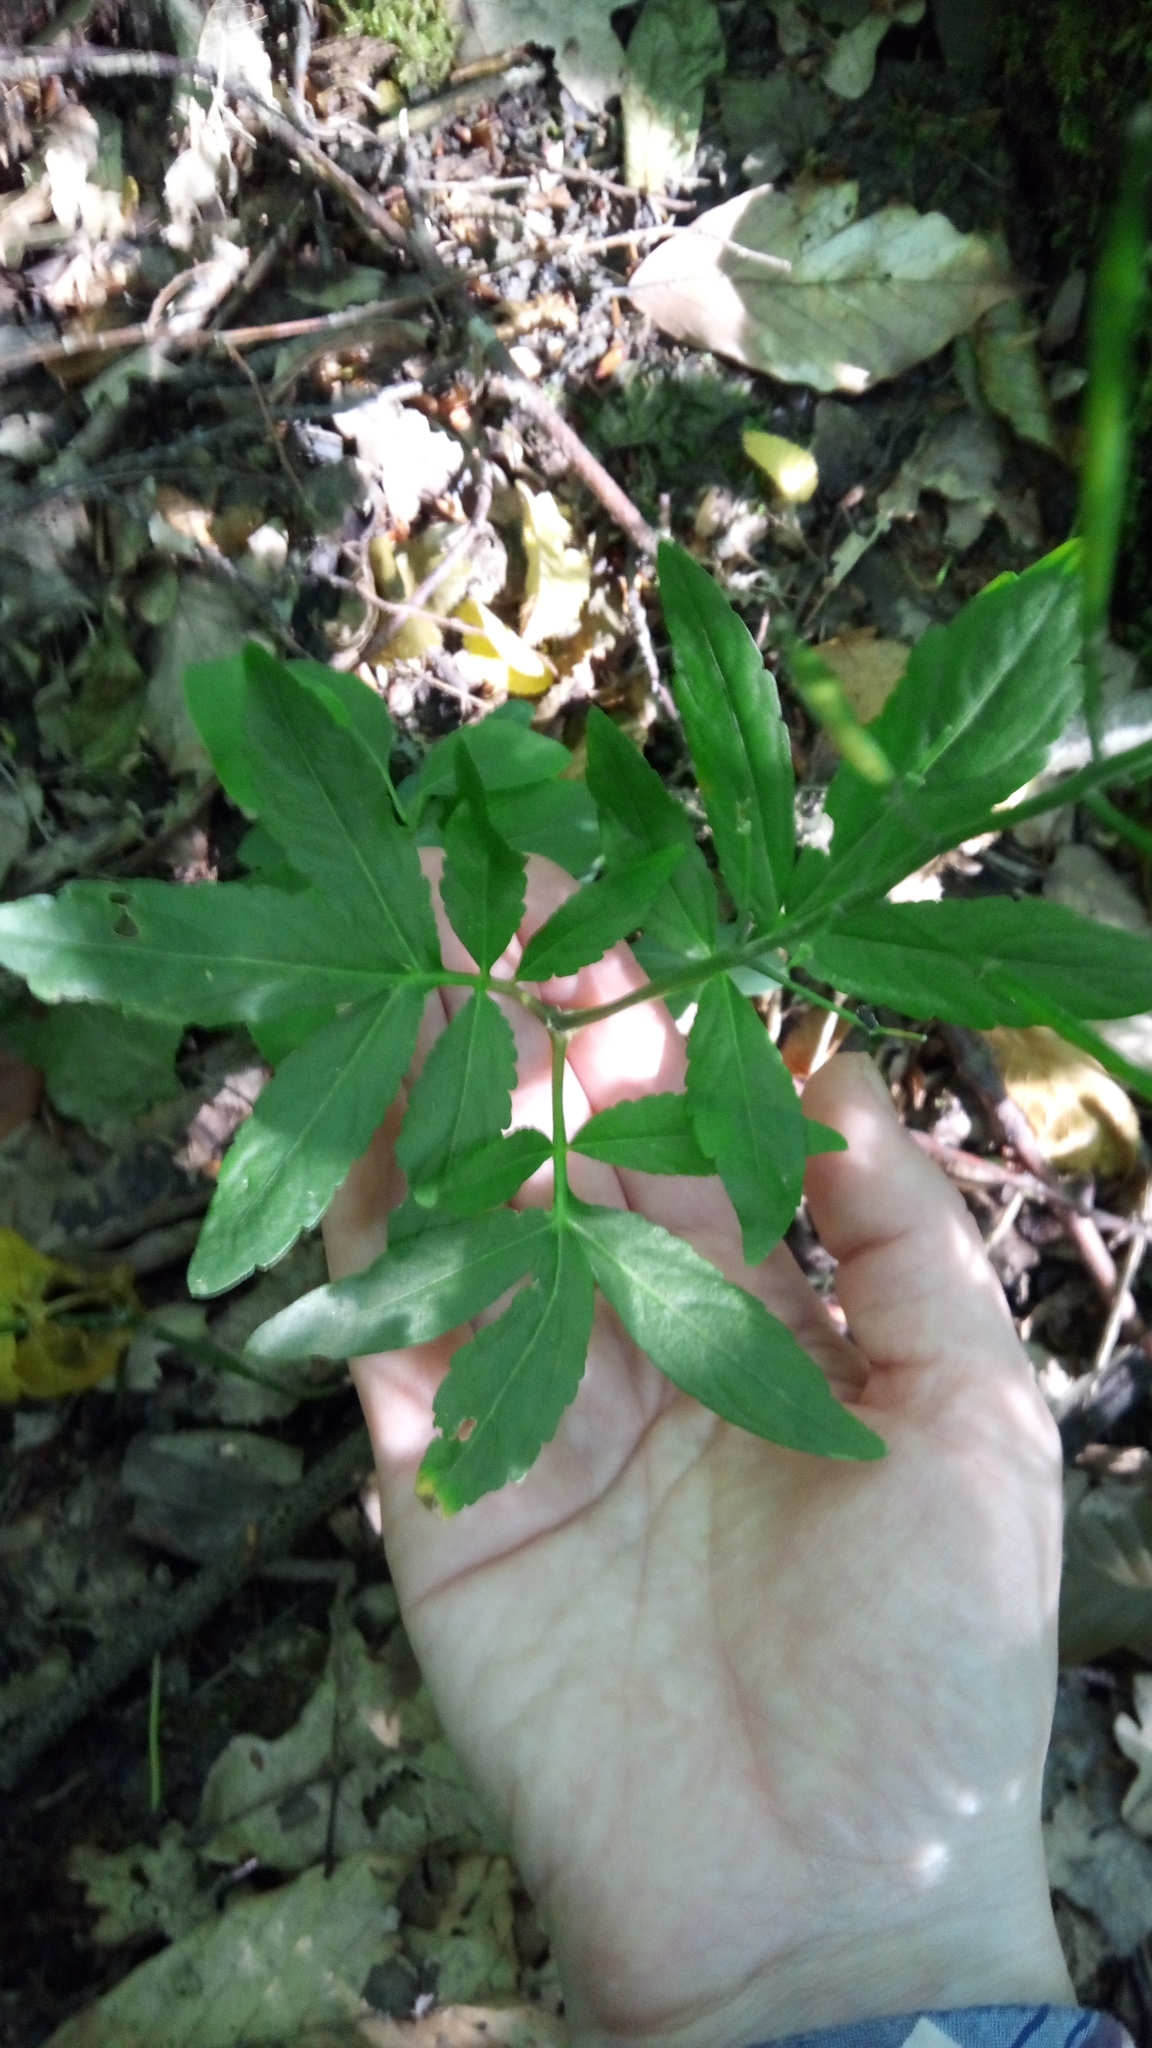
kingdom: Plantae
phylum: Tracheophyta
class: Magnoliopsida
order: Brassicales
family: Brassicaceae
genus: Cardamine
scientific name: Cardamine quinquefolia
